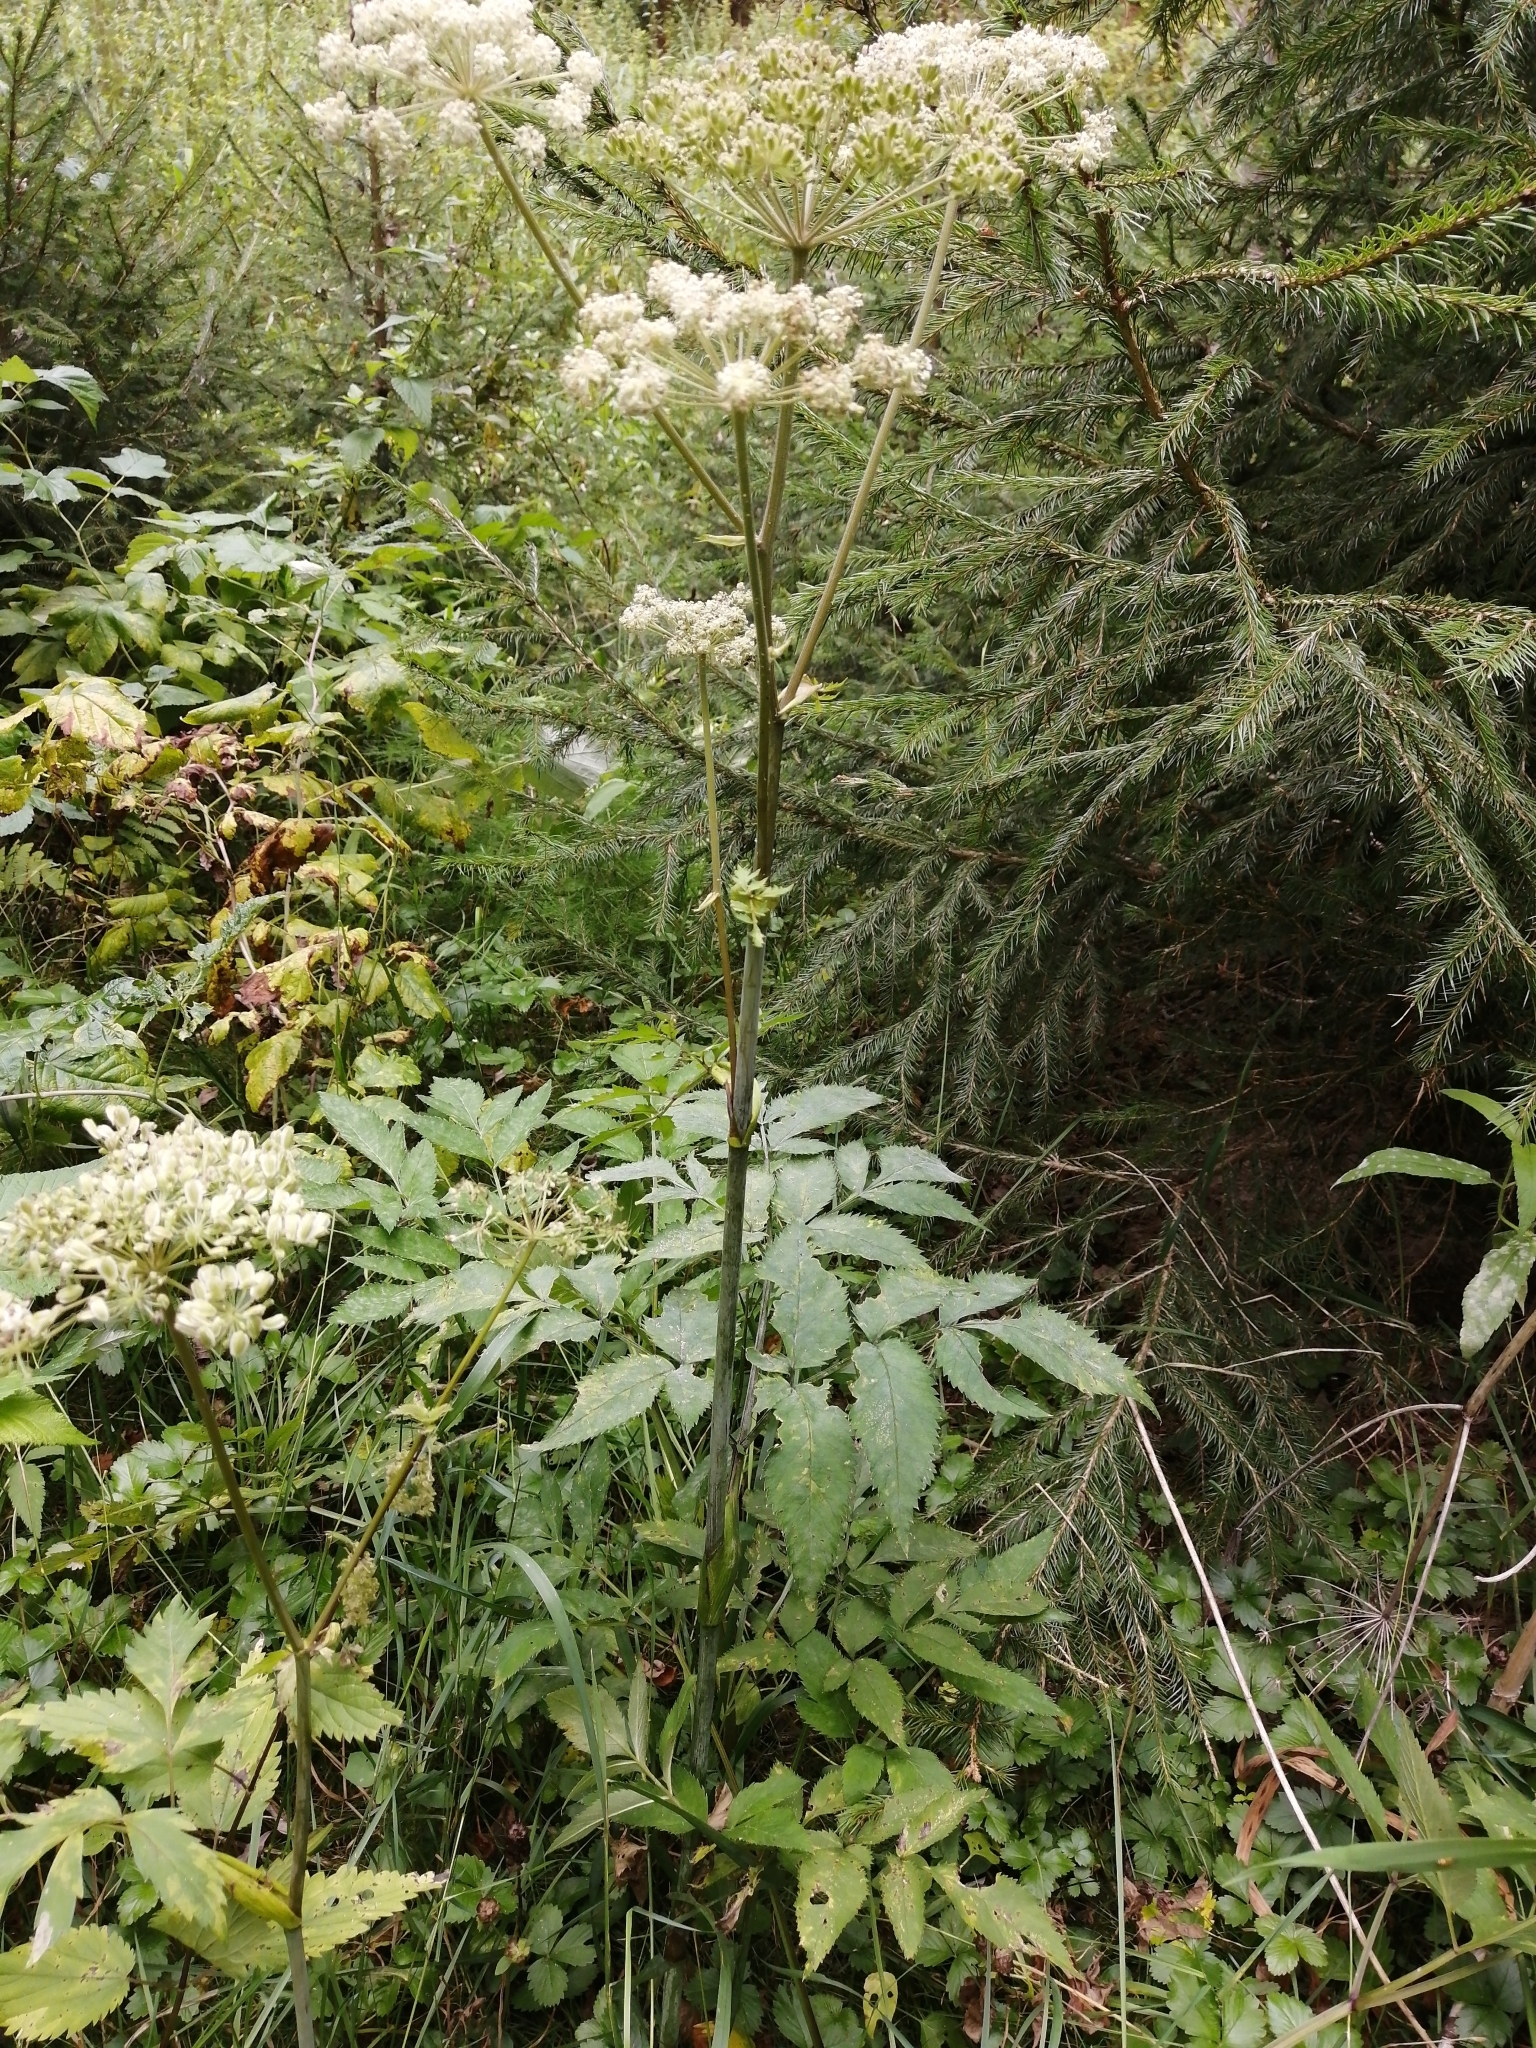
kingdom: Plantae
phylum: Tracheophyta
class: Magnoliopsida
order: Apiales
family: Apiaceae
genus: Angelica
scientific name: Angelica sylvestris
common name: Wild angelica
